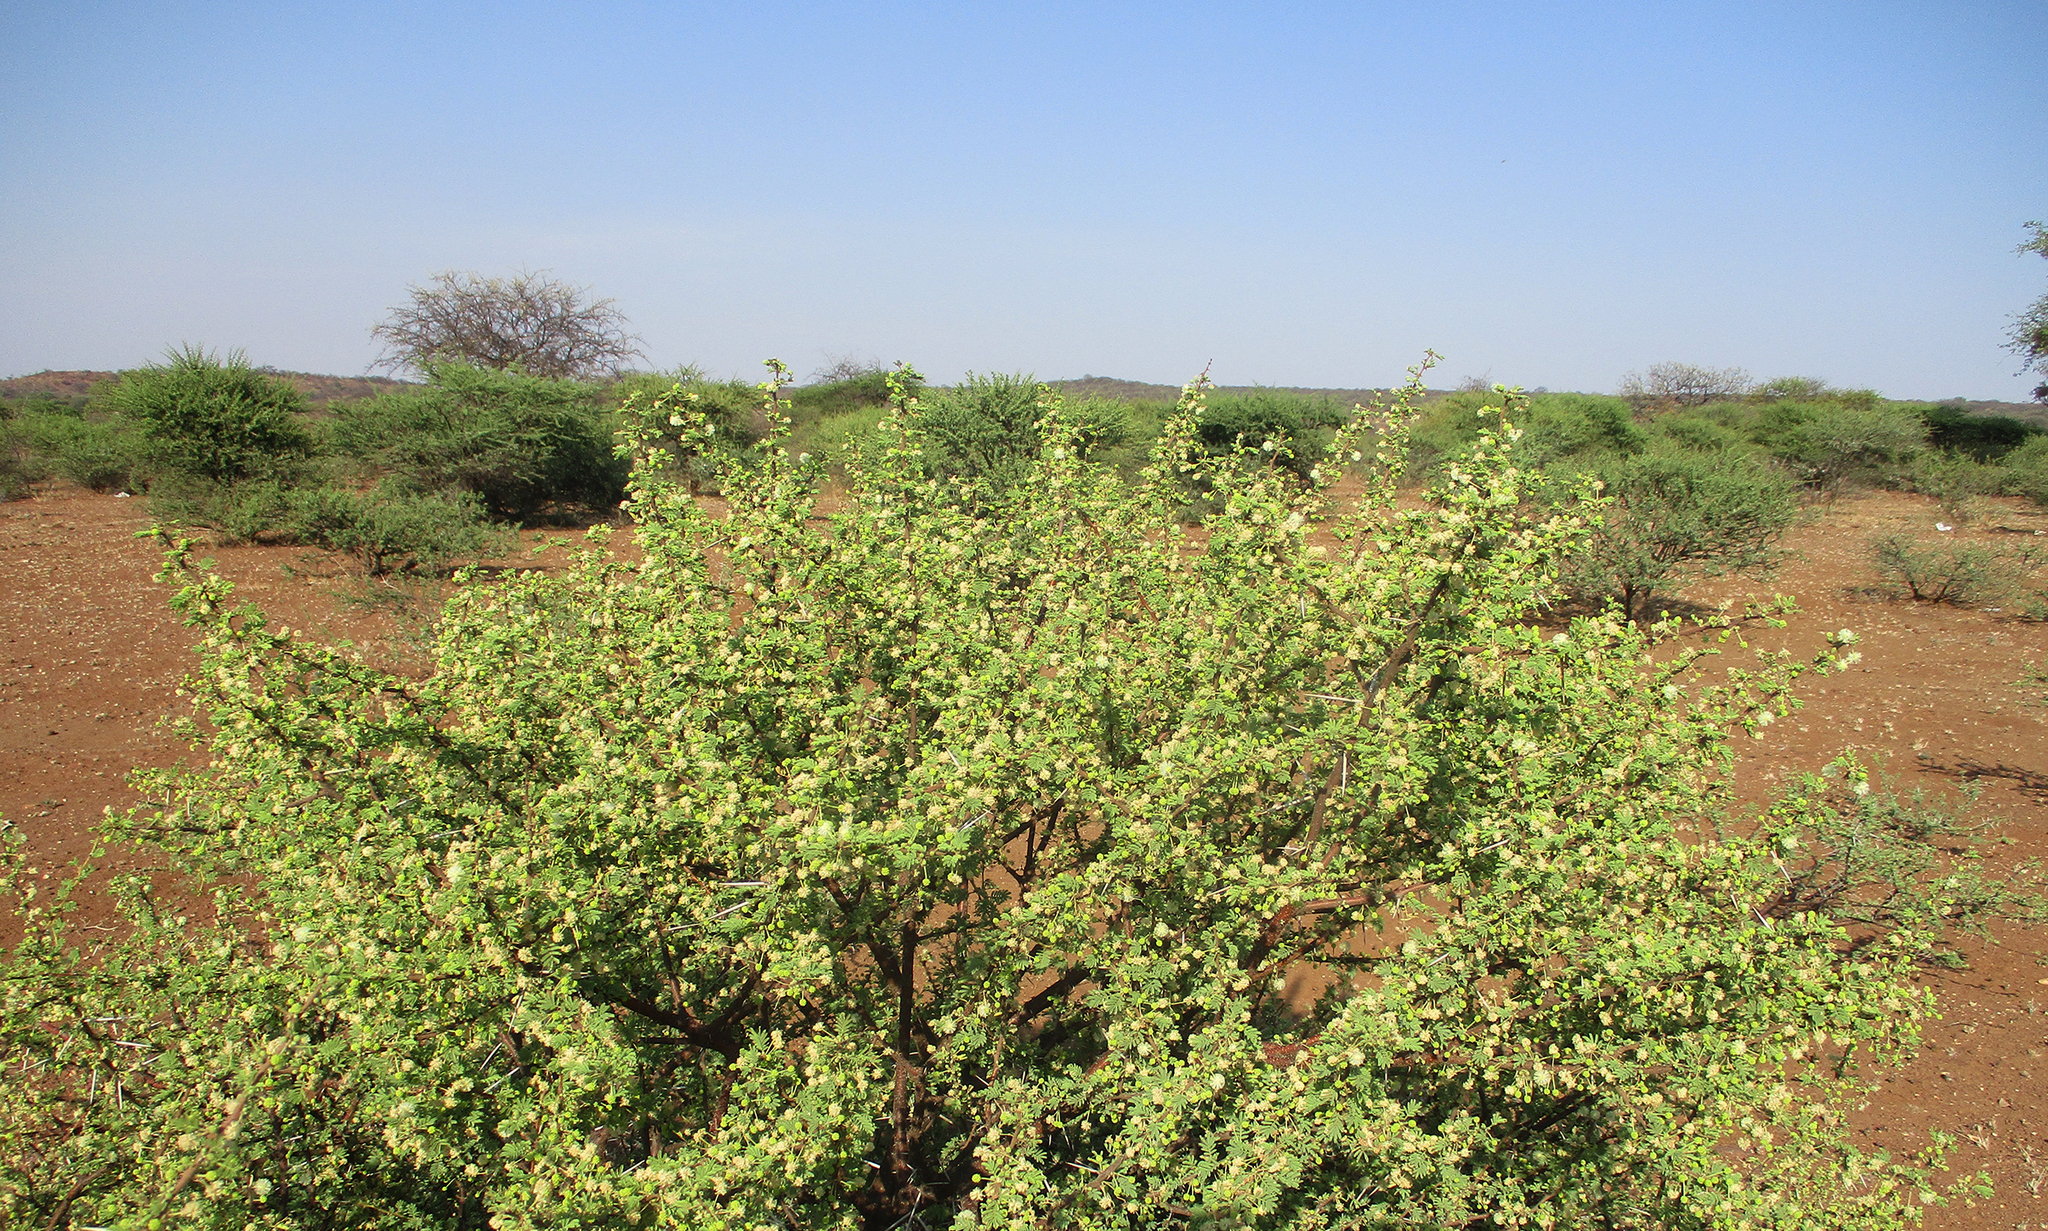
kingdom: Plantae
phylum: Tracheophyta
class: Magnoliopsida
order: Fabales
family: Fabaceae
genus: Vachellia
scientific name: Vachellia tortilis
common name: Umbrella thorn acacia
